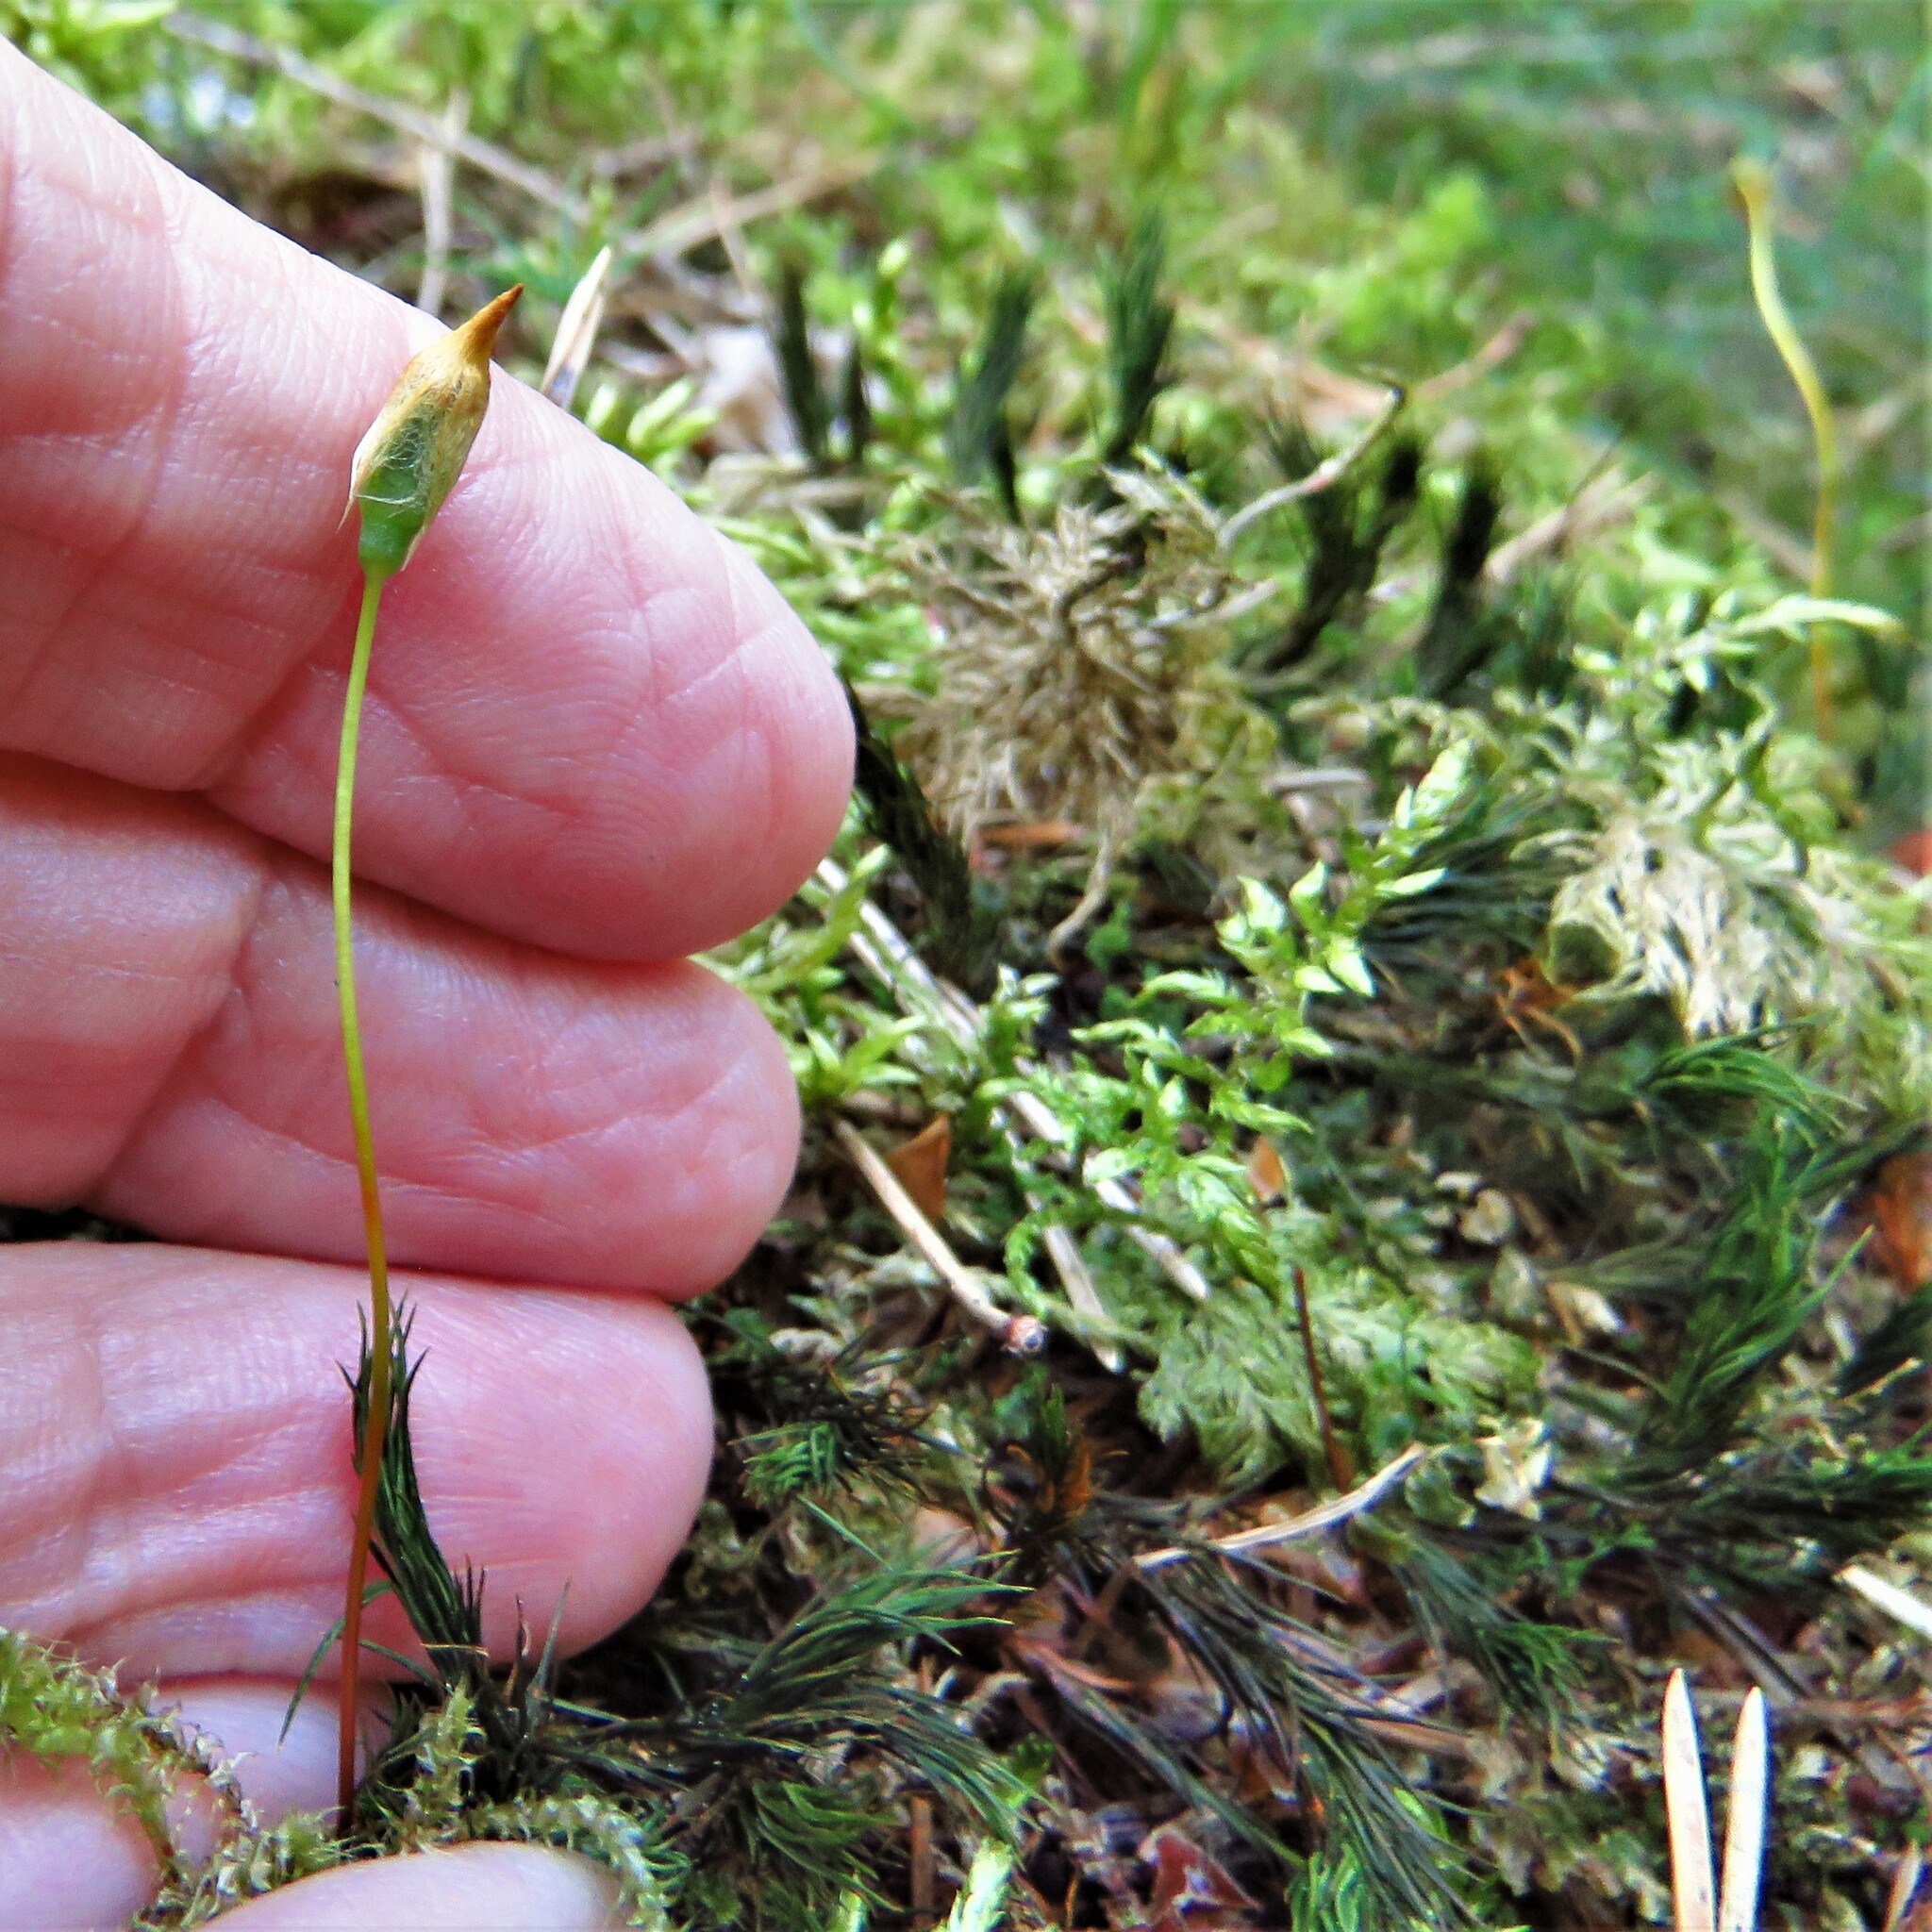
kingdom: Plantae
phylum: Bryophyta
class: Polytrichopsida
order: Polytrichales
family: Polytrichaceae
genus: Polytrichum
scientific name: Polytrichum formosum
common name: Bank haircap moss
